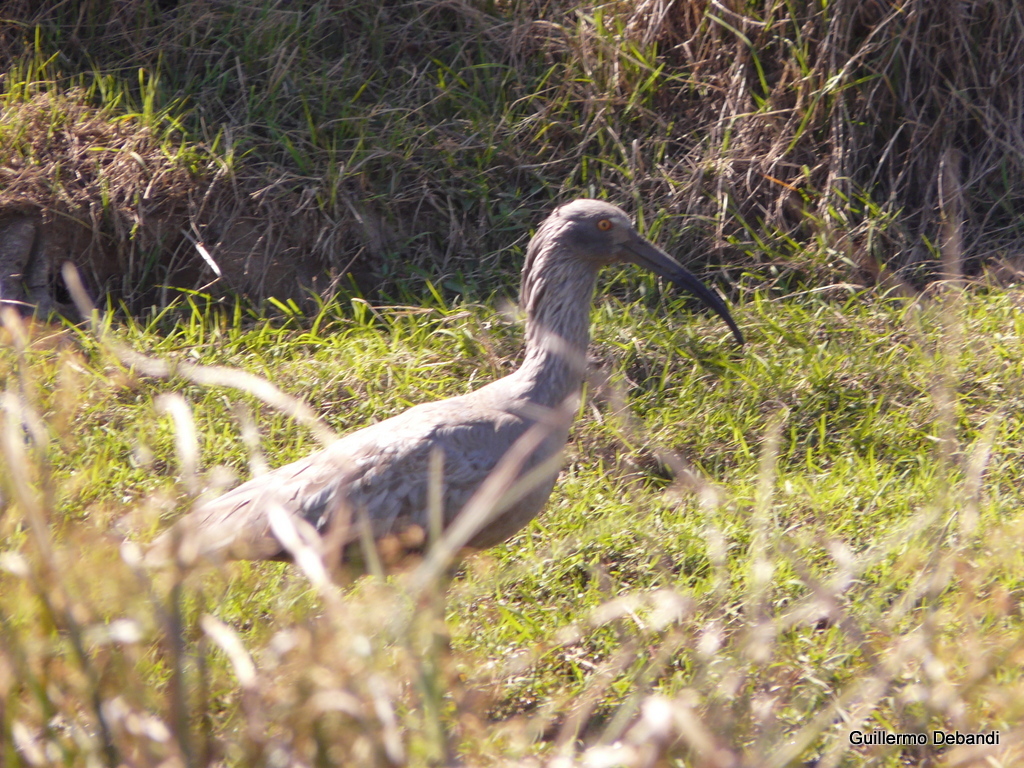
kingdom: Animalia
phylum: Chordata
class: Aves
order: Pelecaniformes
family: Threskiornithidae
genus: Theristicus
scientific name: Theristicus caerulescens
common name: Plumbeous ibis
